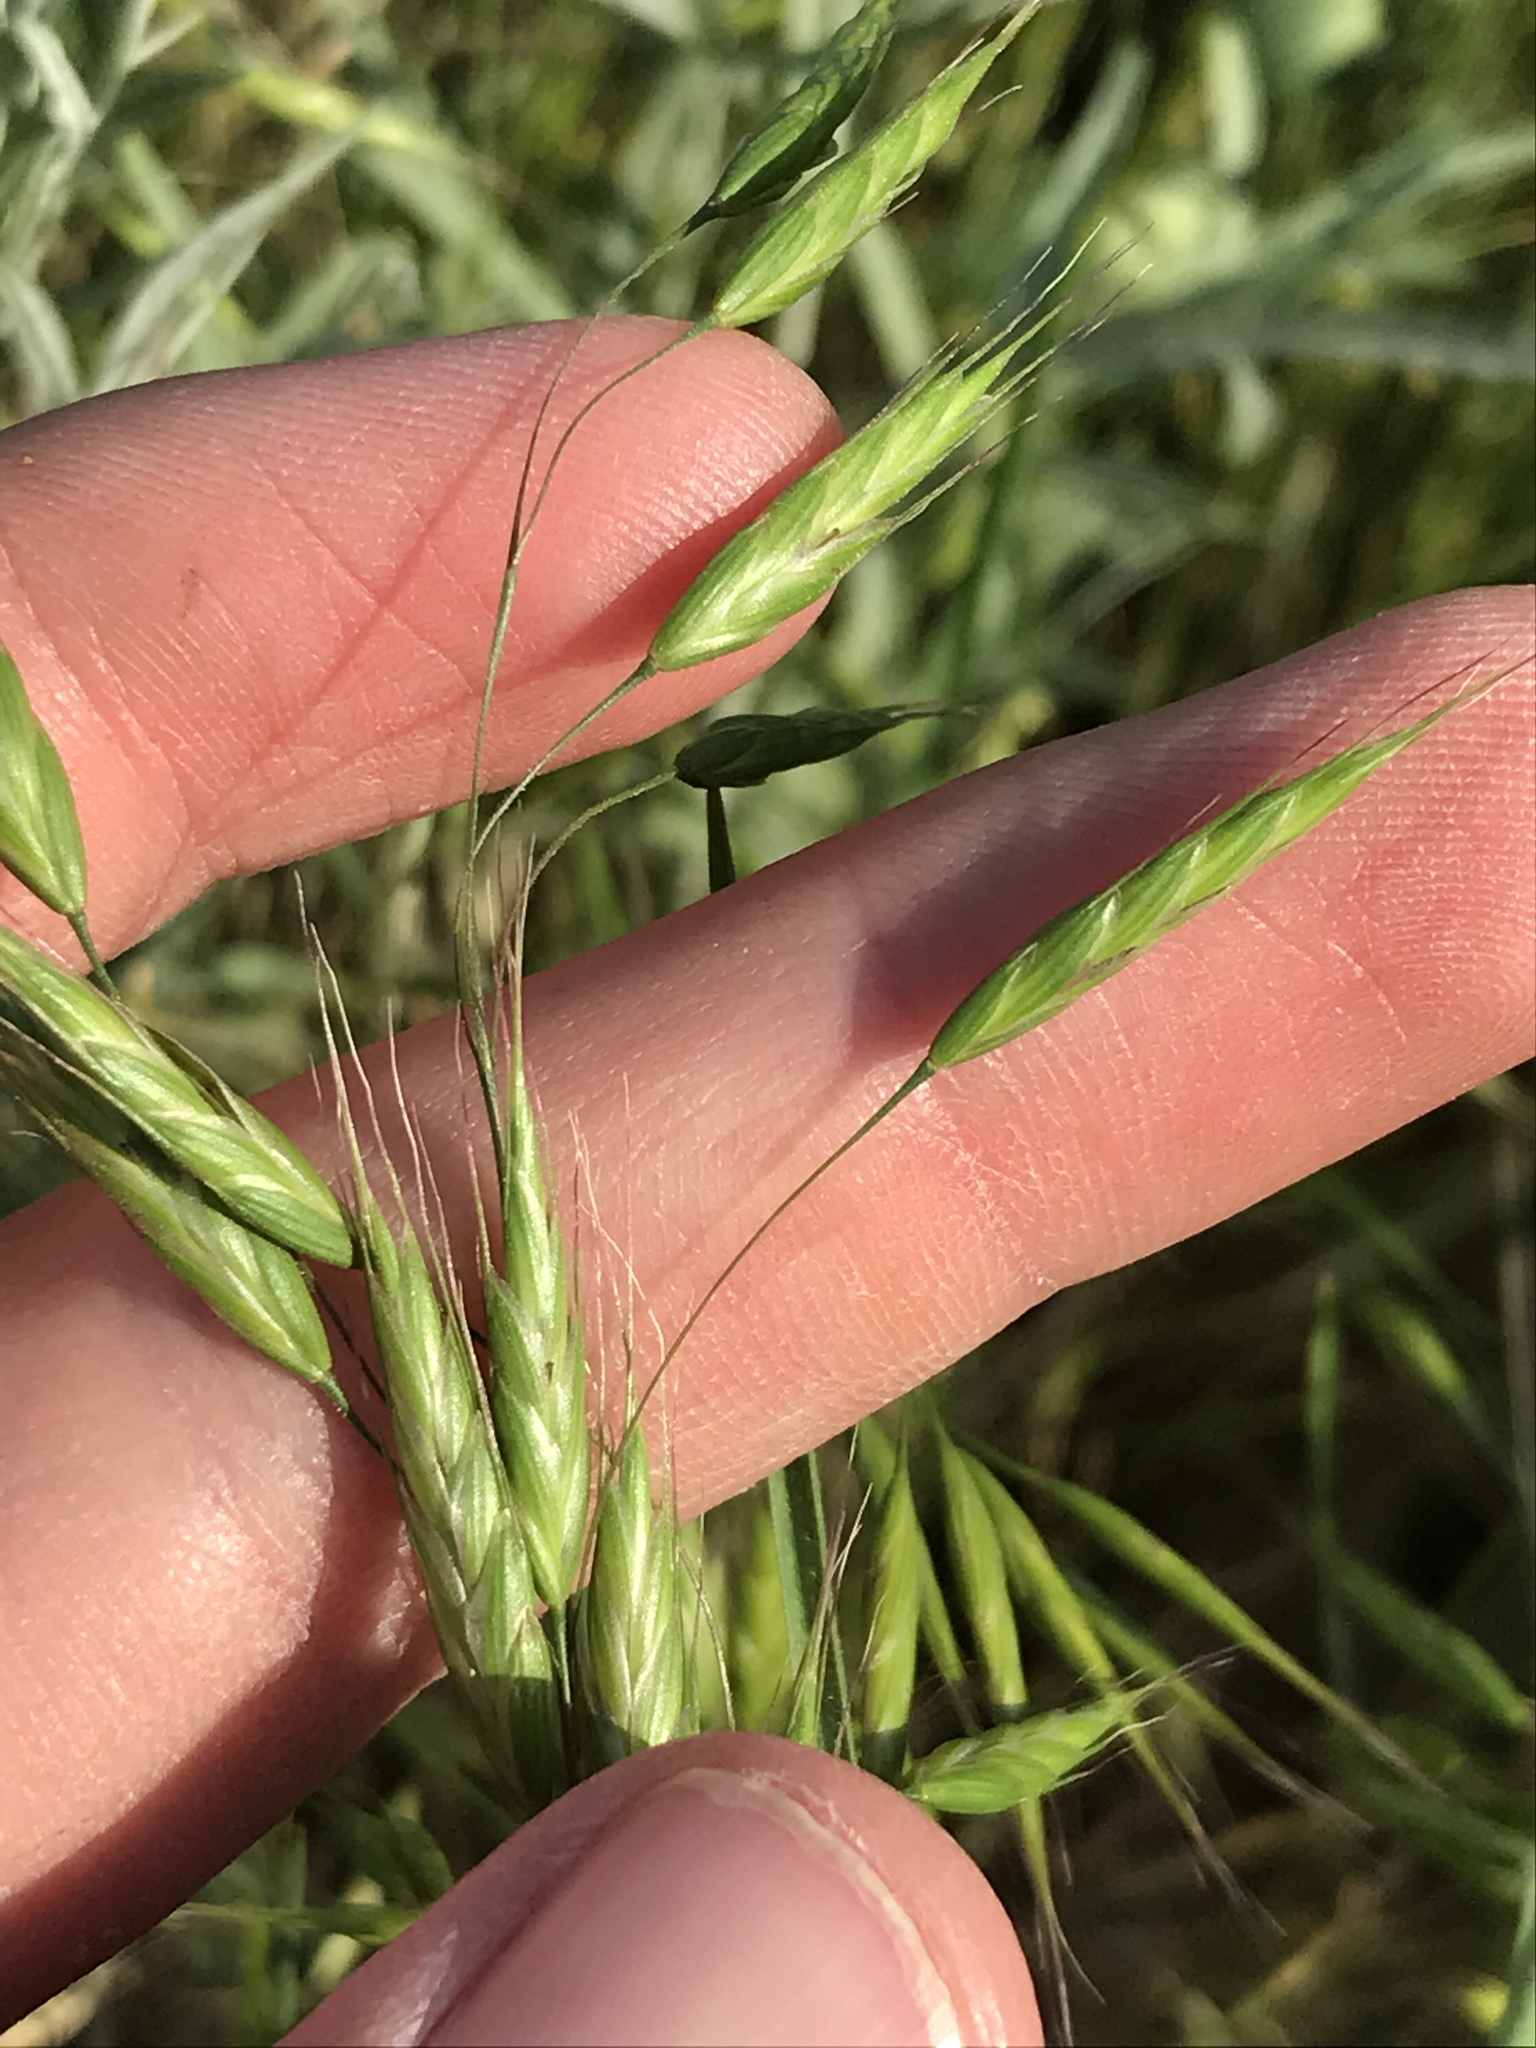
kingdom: Plantae
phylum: Tracheophyta
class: Liliopsida
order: Poales
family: Poaceae
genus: Bromus
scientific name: Bromus japonicus
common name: Japanese brome
